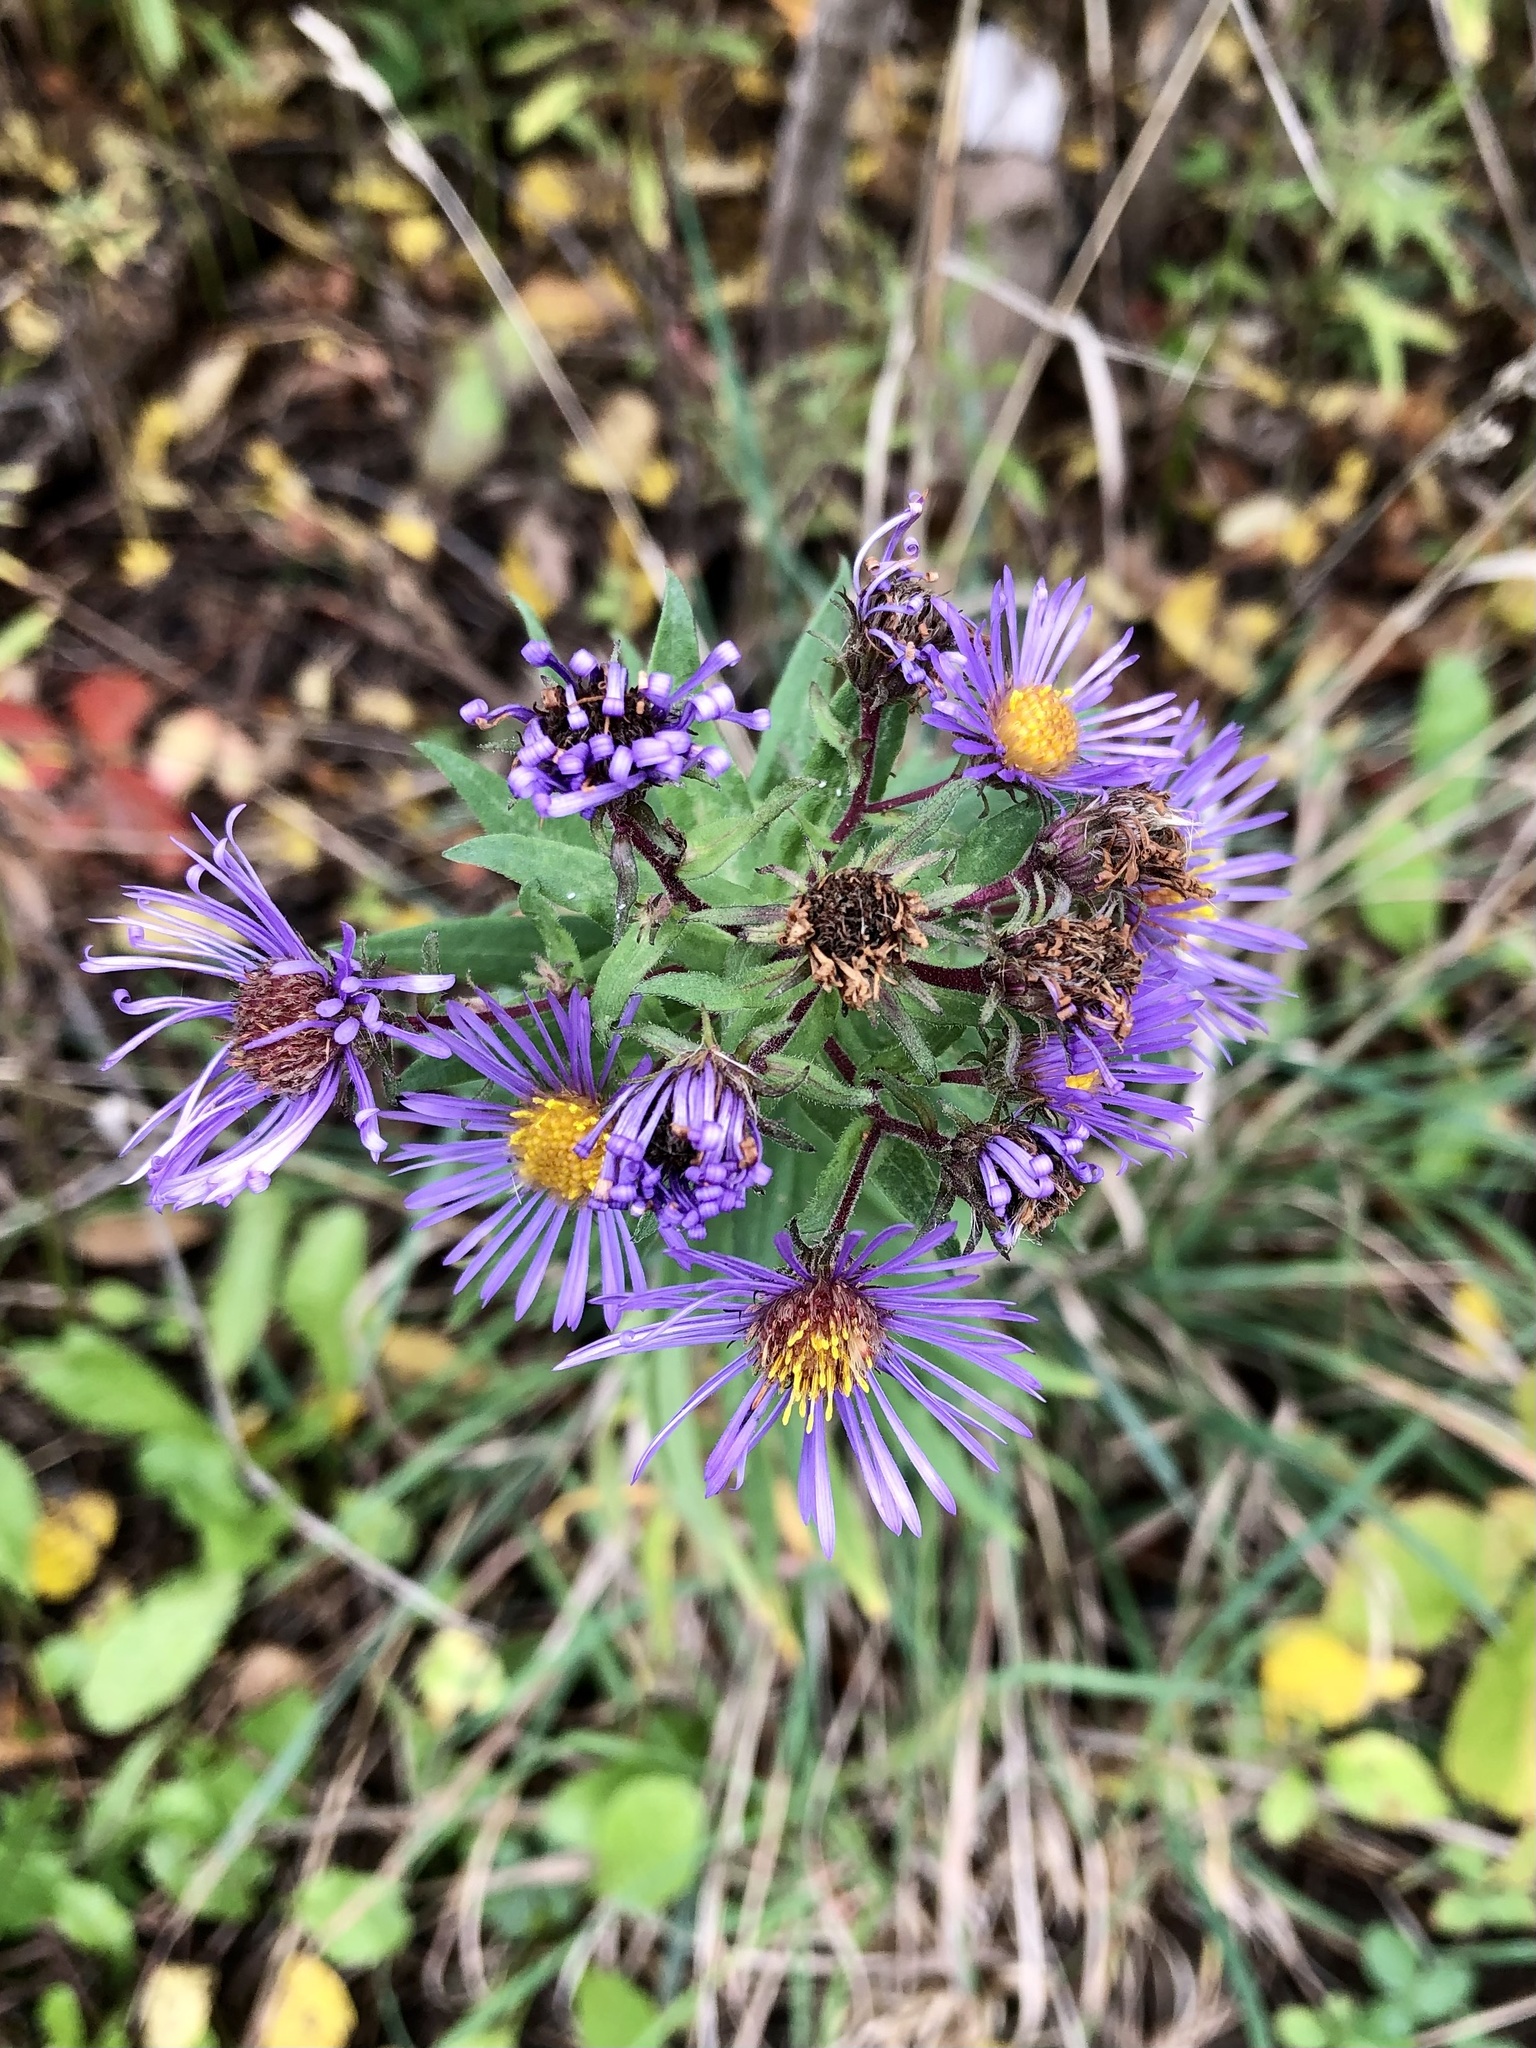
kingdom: Plantae
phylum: Tracheophyta
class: Magnoliopsida
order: Asterales
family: Asteraceae
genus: Symphyotrichum
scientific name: Symphyotrichum novae-angliae
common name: Michaelmas daisy
